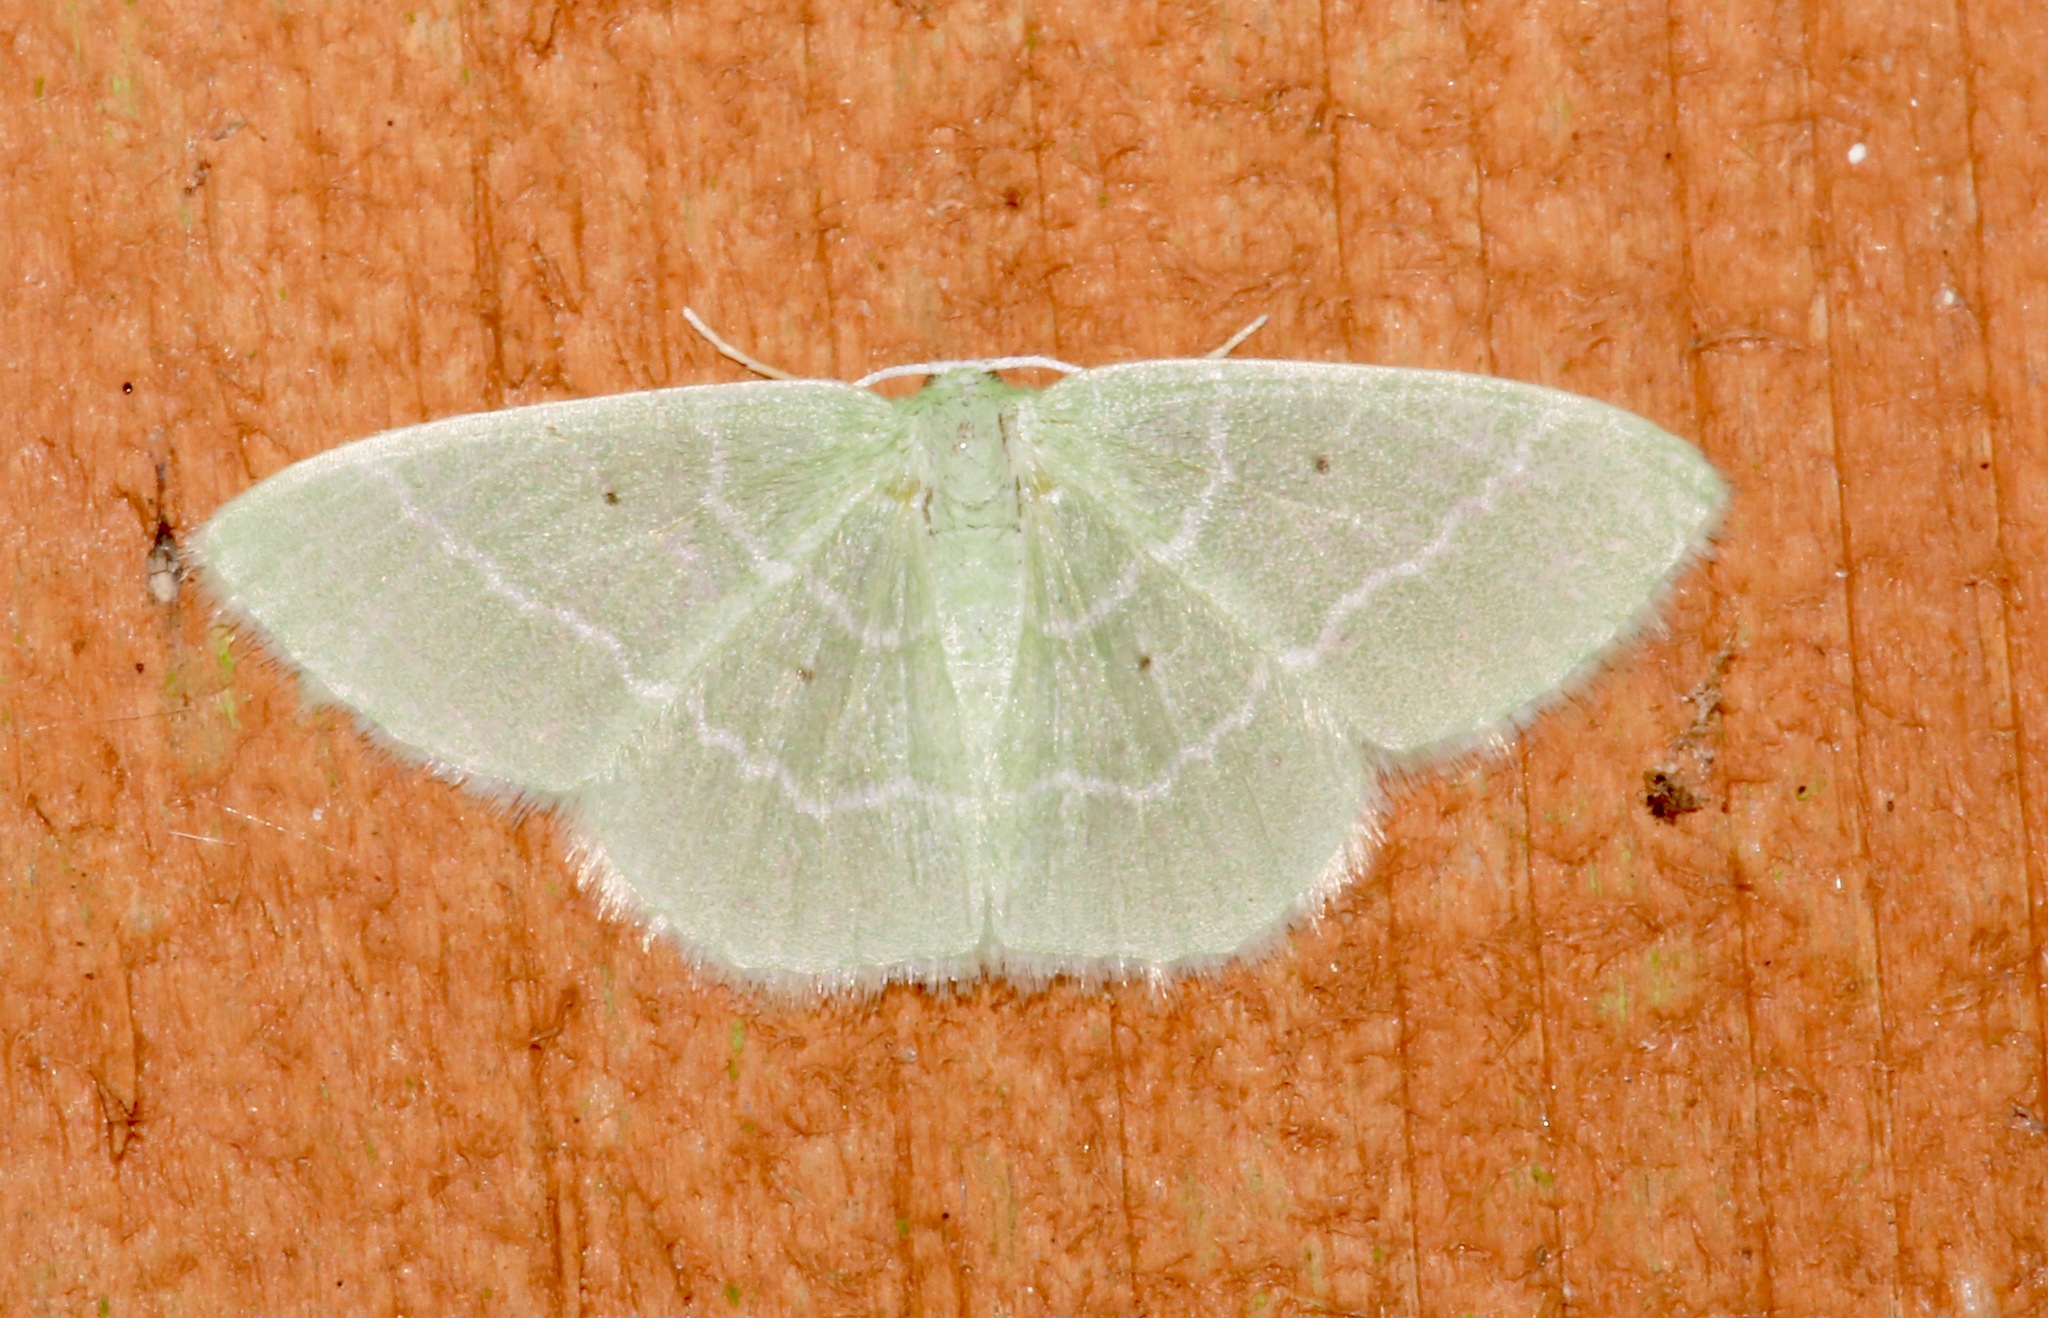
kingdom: Animalia
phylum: Arthropoda
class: Insecta
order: Lepidoptera
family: Geometridae
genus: Nemoria
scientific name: Nemoria elfa
